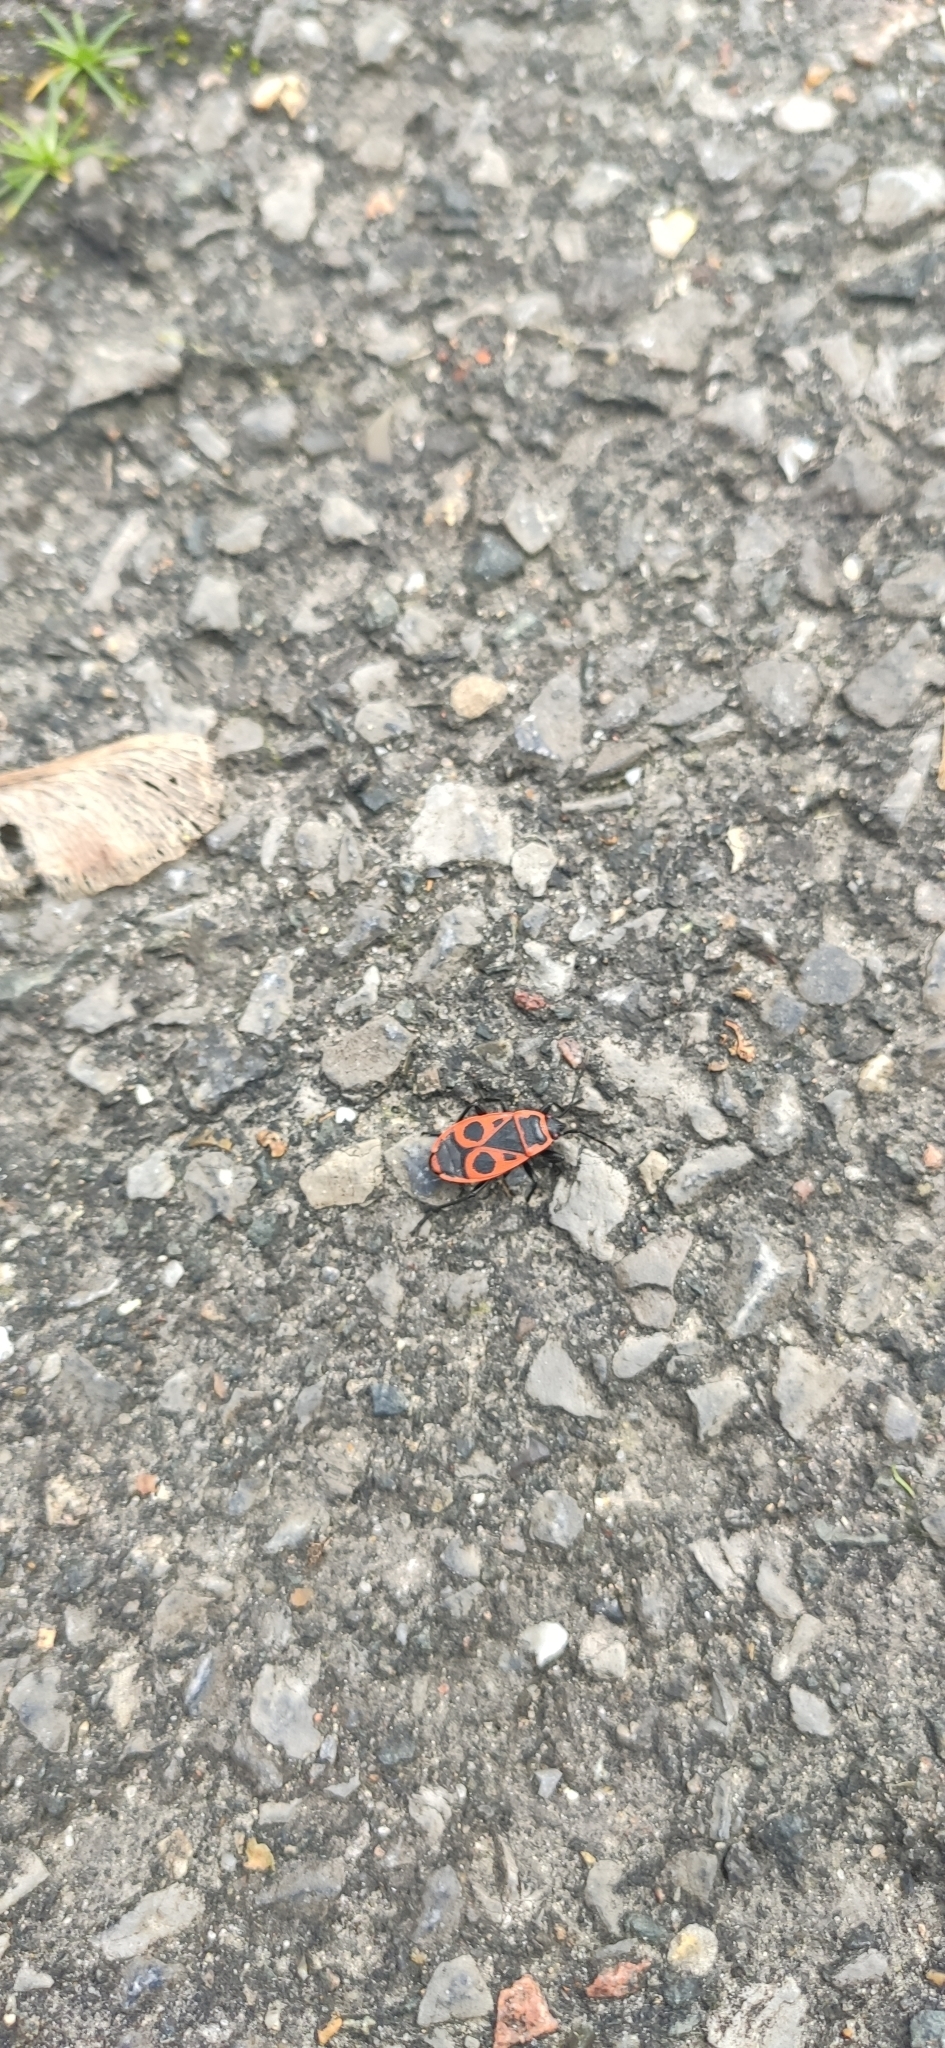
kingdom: Animalia
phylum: Arthropoda
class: Insecta
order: Hemiptera
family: Pyrrhocoridae
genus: Pyrrhocoris
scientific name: Pyrrhocoris apterus
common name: Firebug
